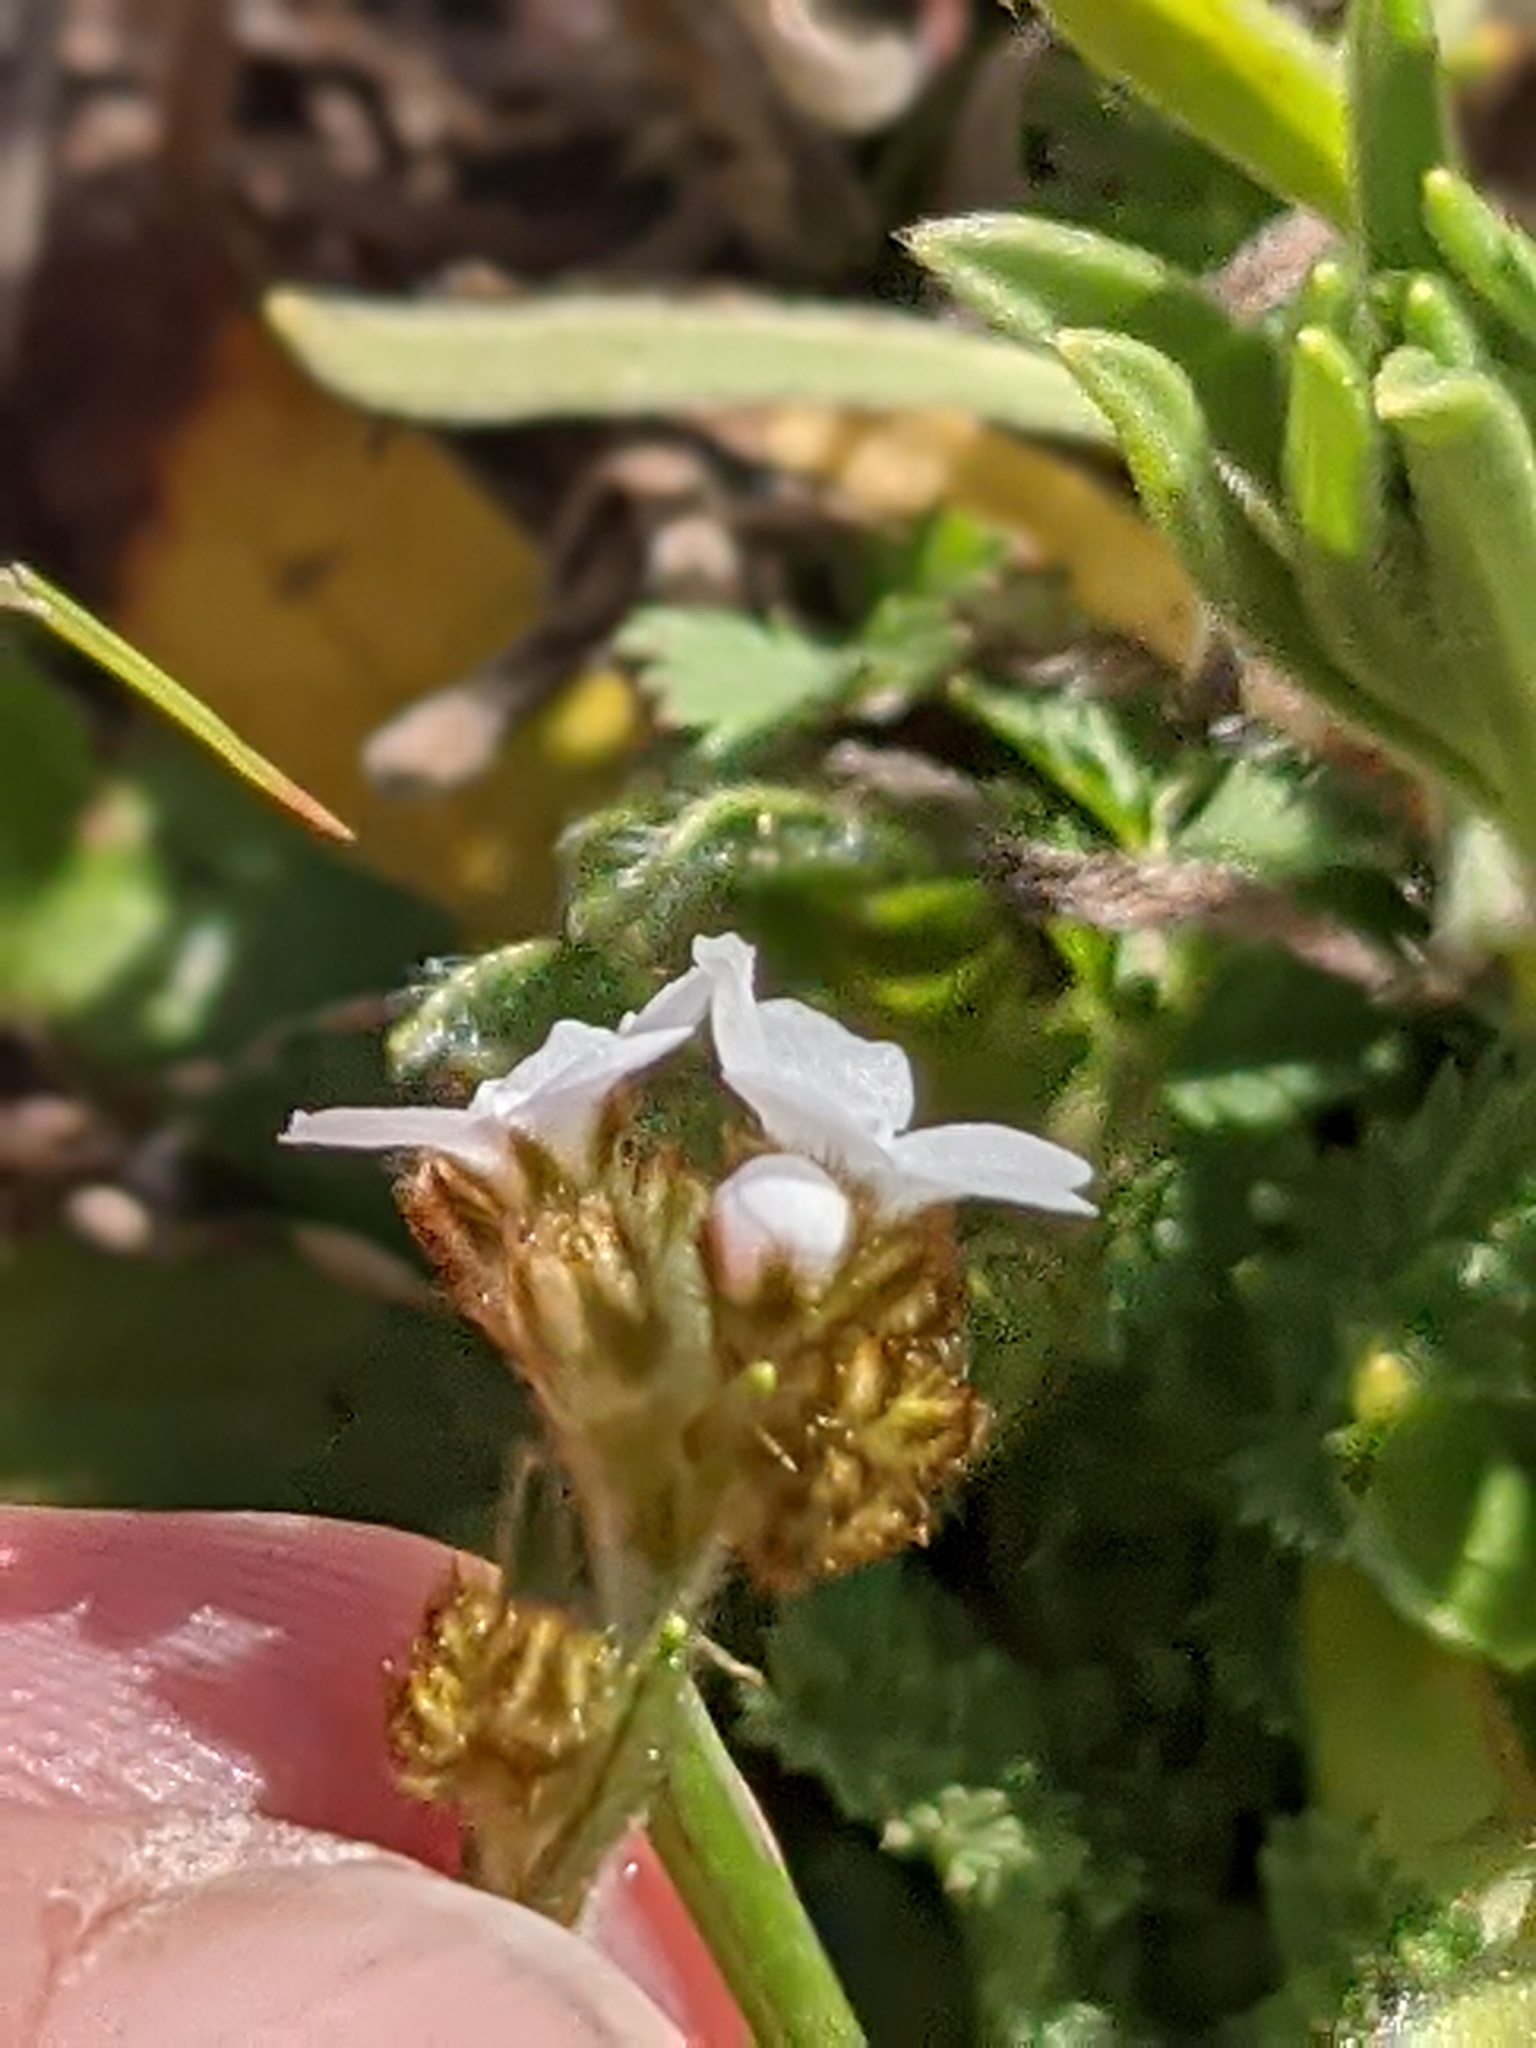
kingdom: Plantae
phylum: Tracheophyta
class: Magnoliopsida
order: Boraginales
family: Boraginaceae
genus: Plagiobothrys
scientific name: Plagiobothrys nothofulvus
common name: Popcorn-flower
